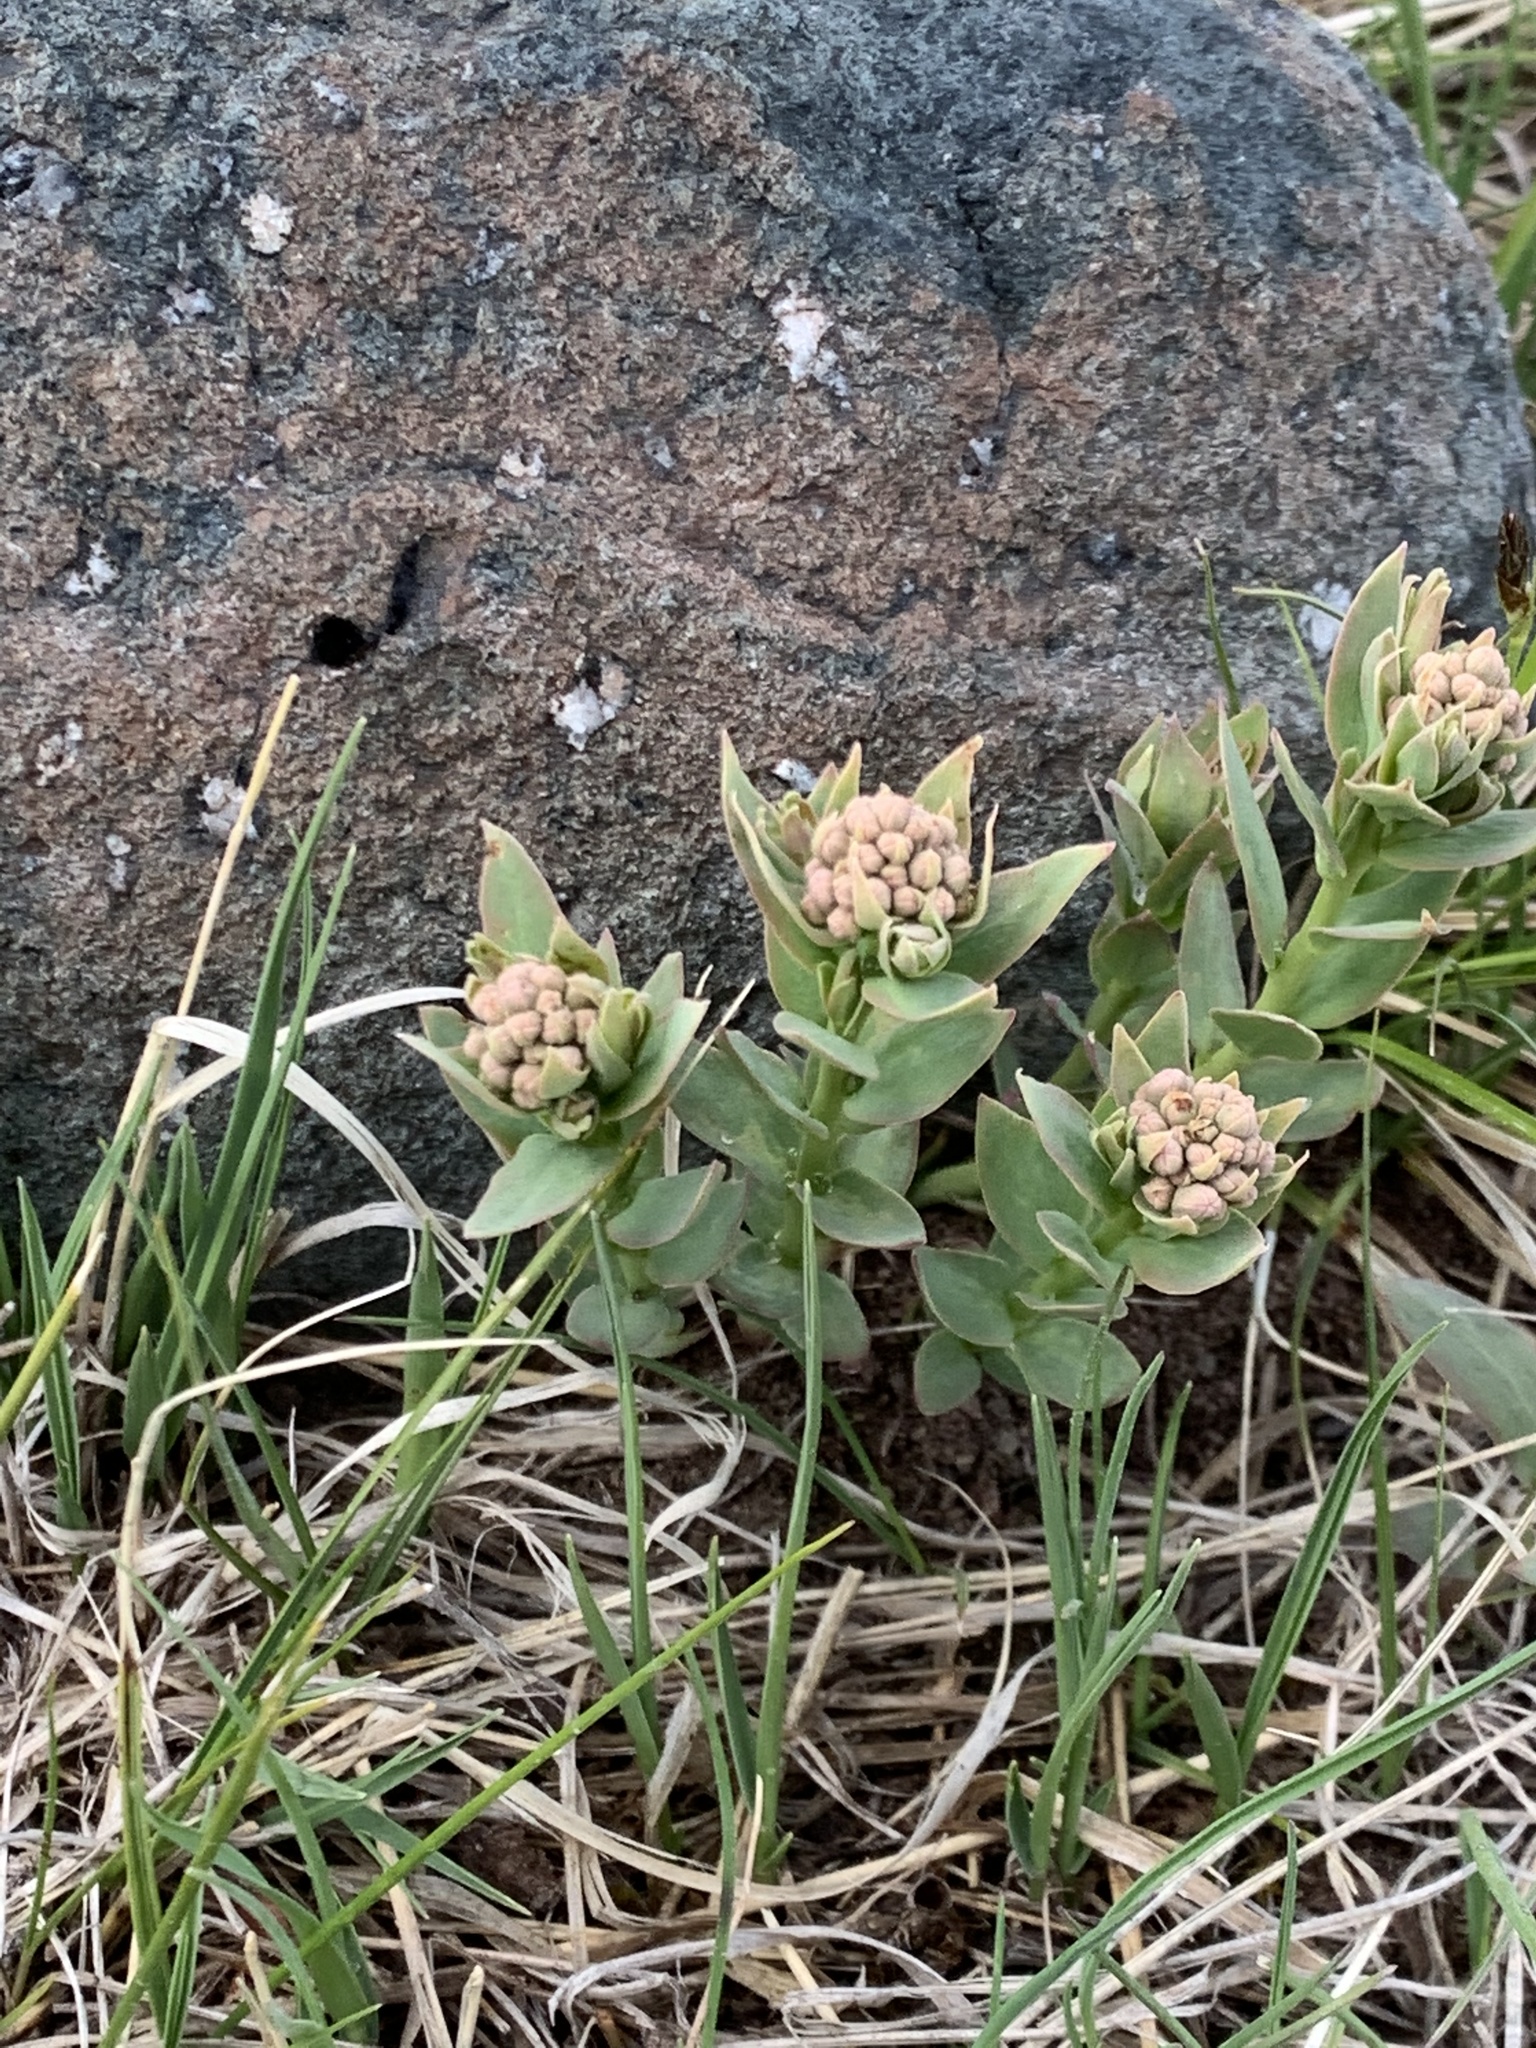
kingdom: Plantae
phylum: Tracheophyta
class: Magnoliopsida
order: Santalales
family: Comandraceae
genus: Comandra
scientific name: Comandra umbellata
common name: Bastard toadflax
